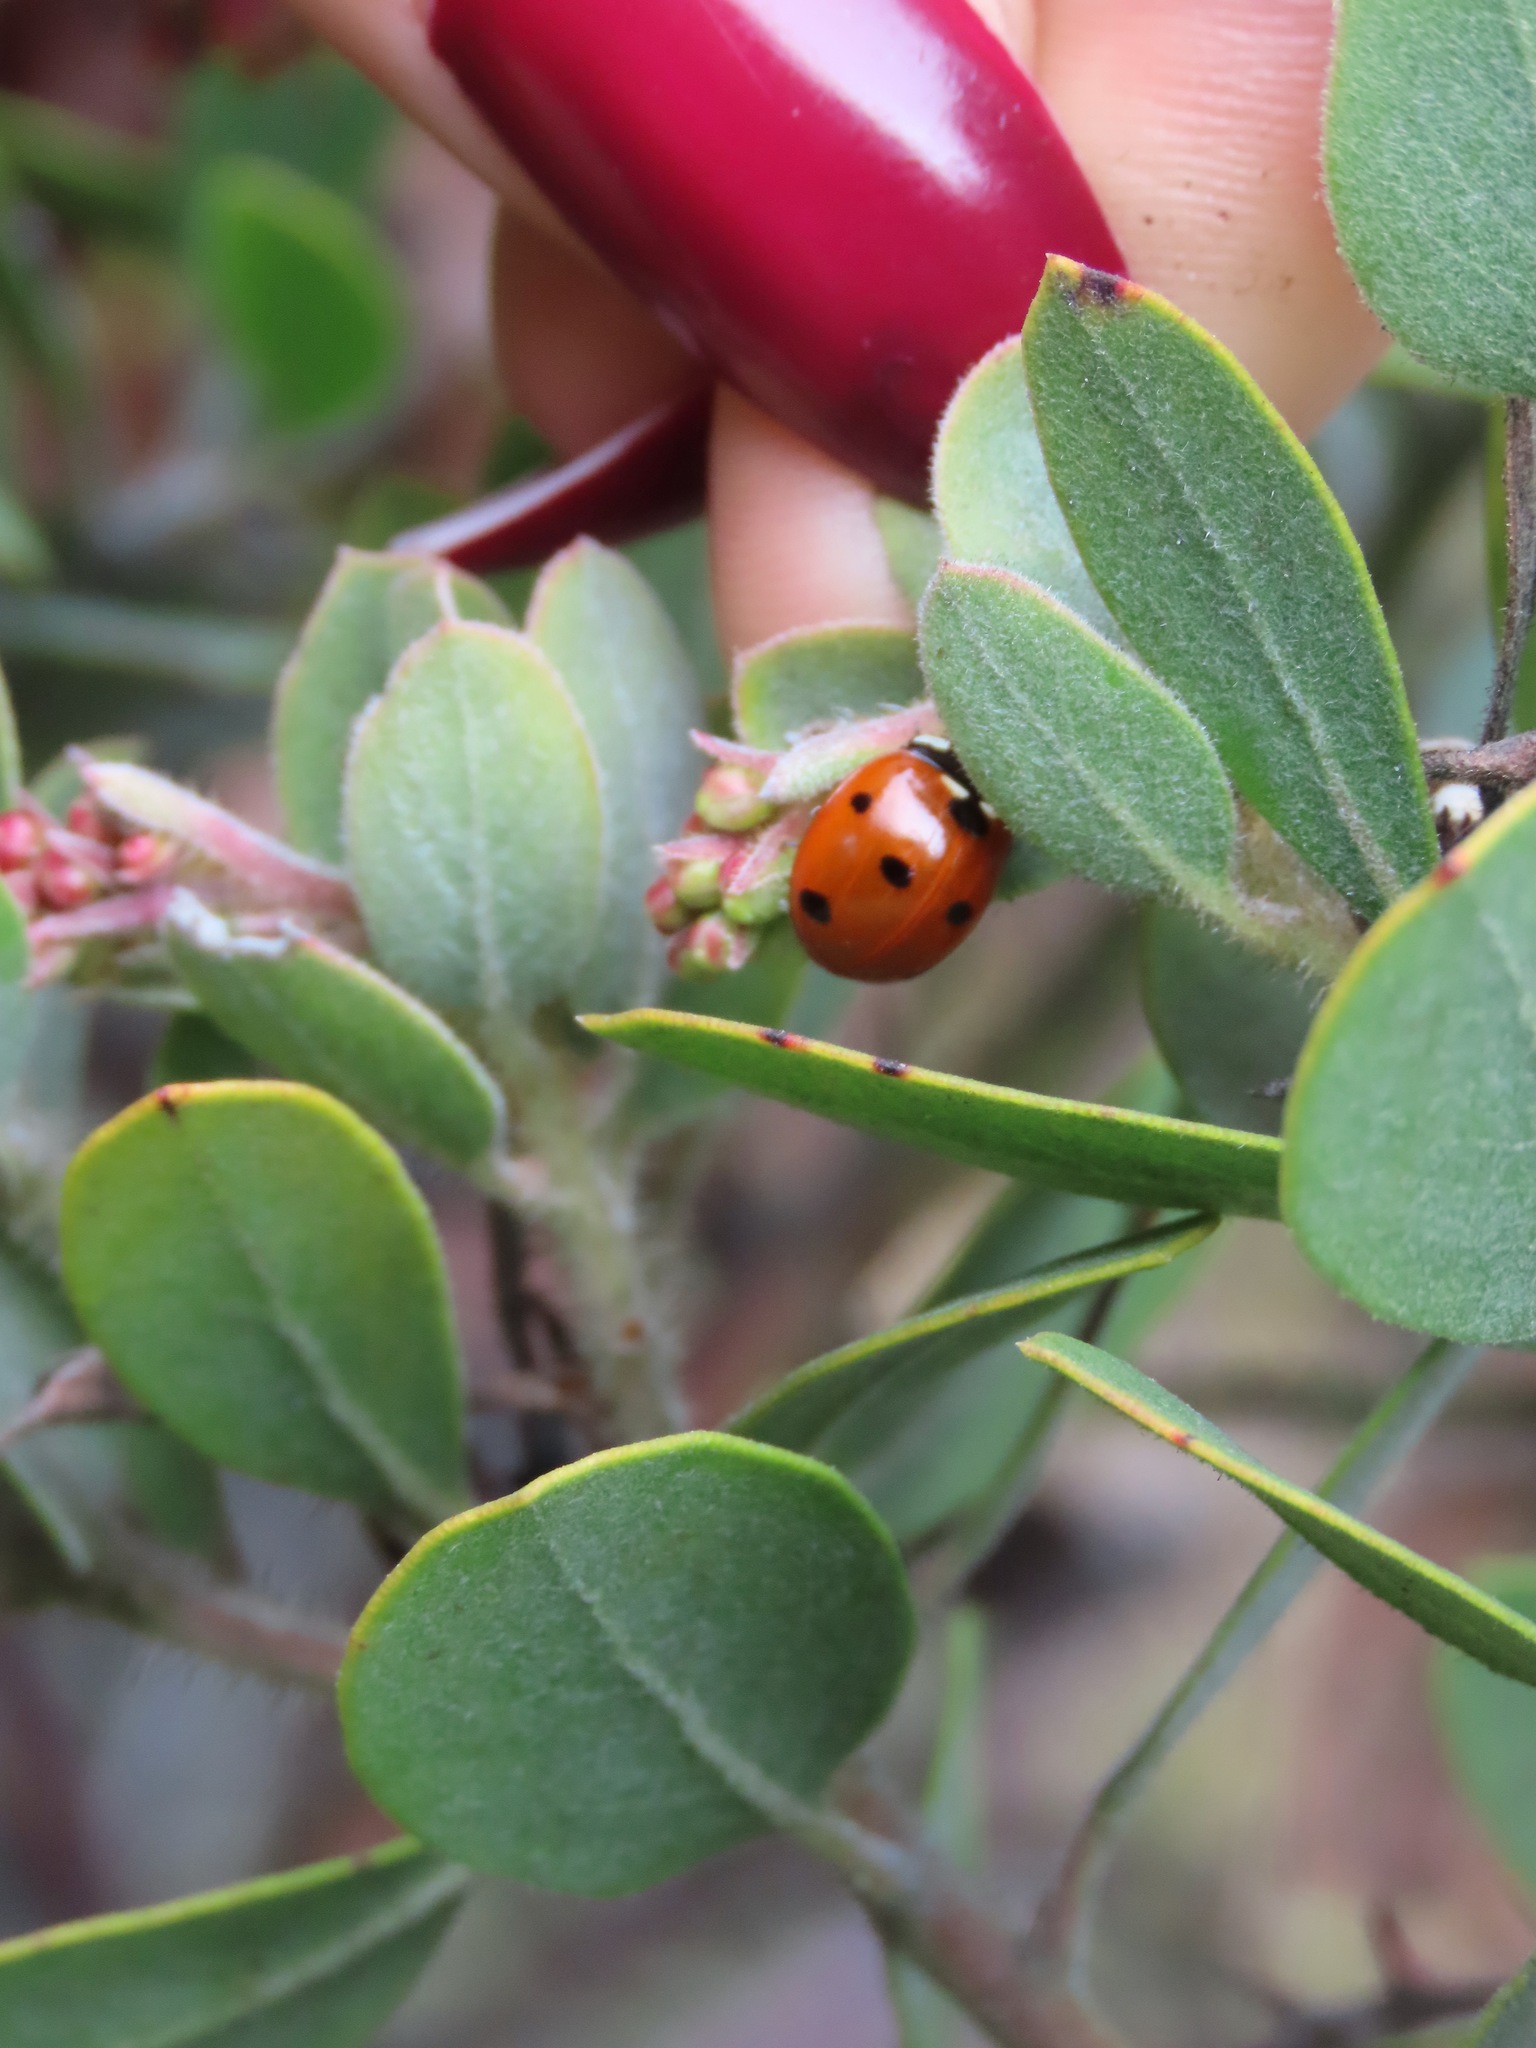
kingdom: Animalia
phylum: Arthropoda
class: Insecta
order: Coleoptera
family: Coccinellidae
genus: Coccinella
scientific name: Coccinella septempunctata
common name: Sevenspotted lady beetle
